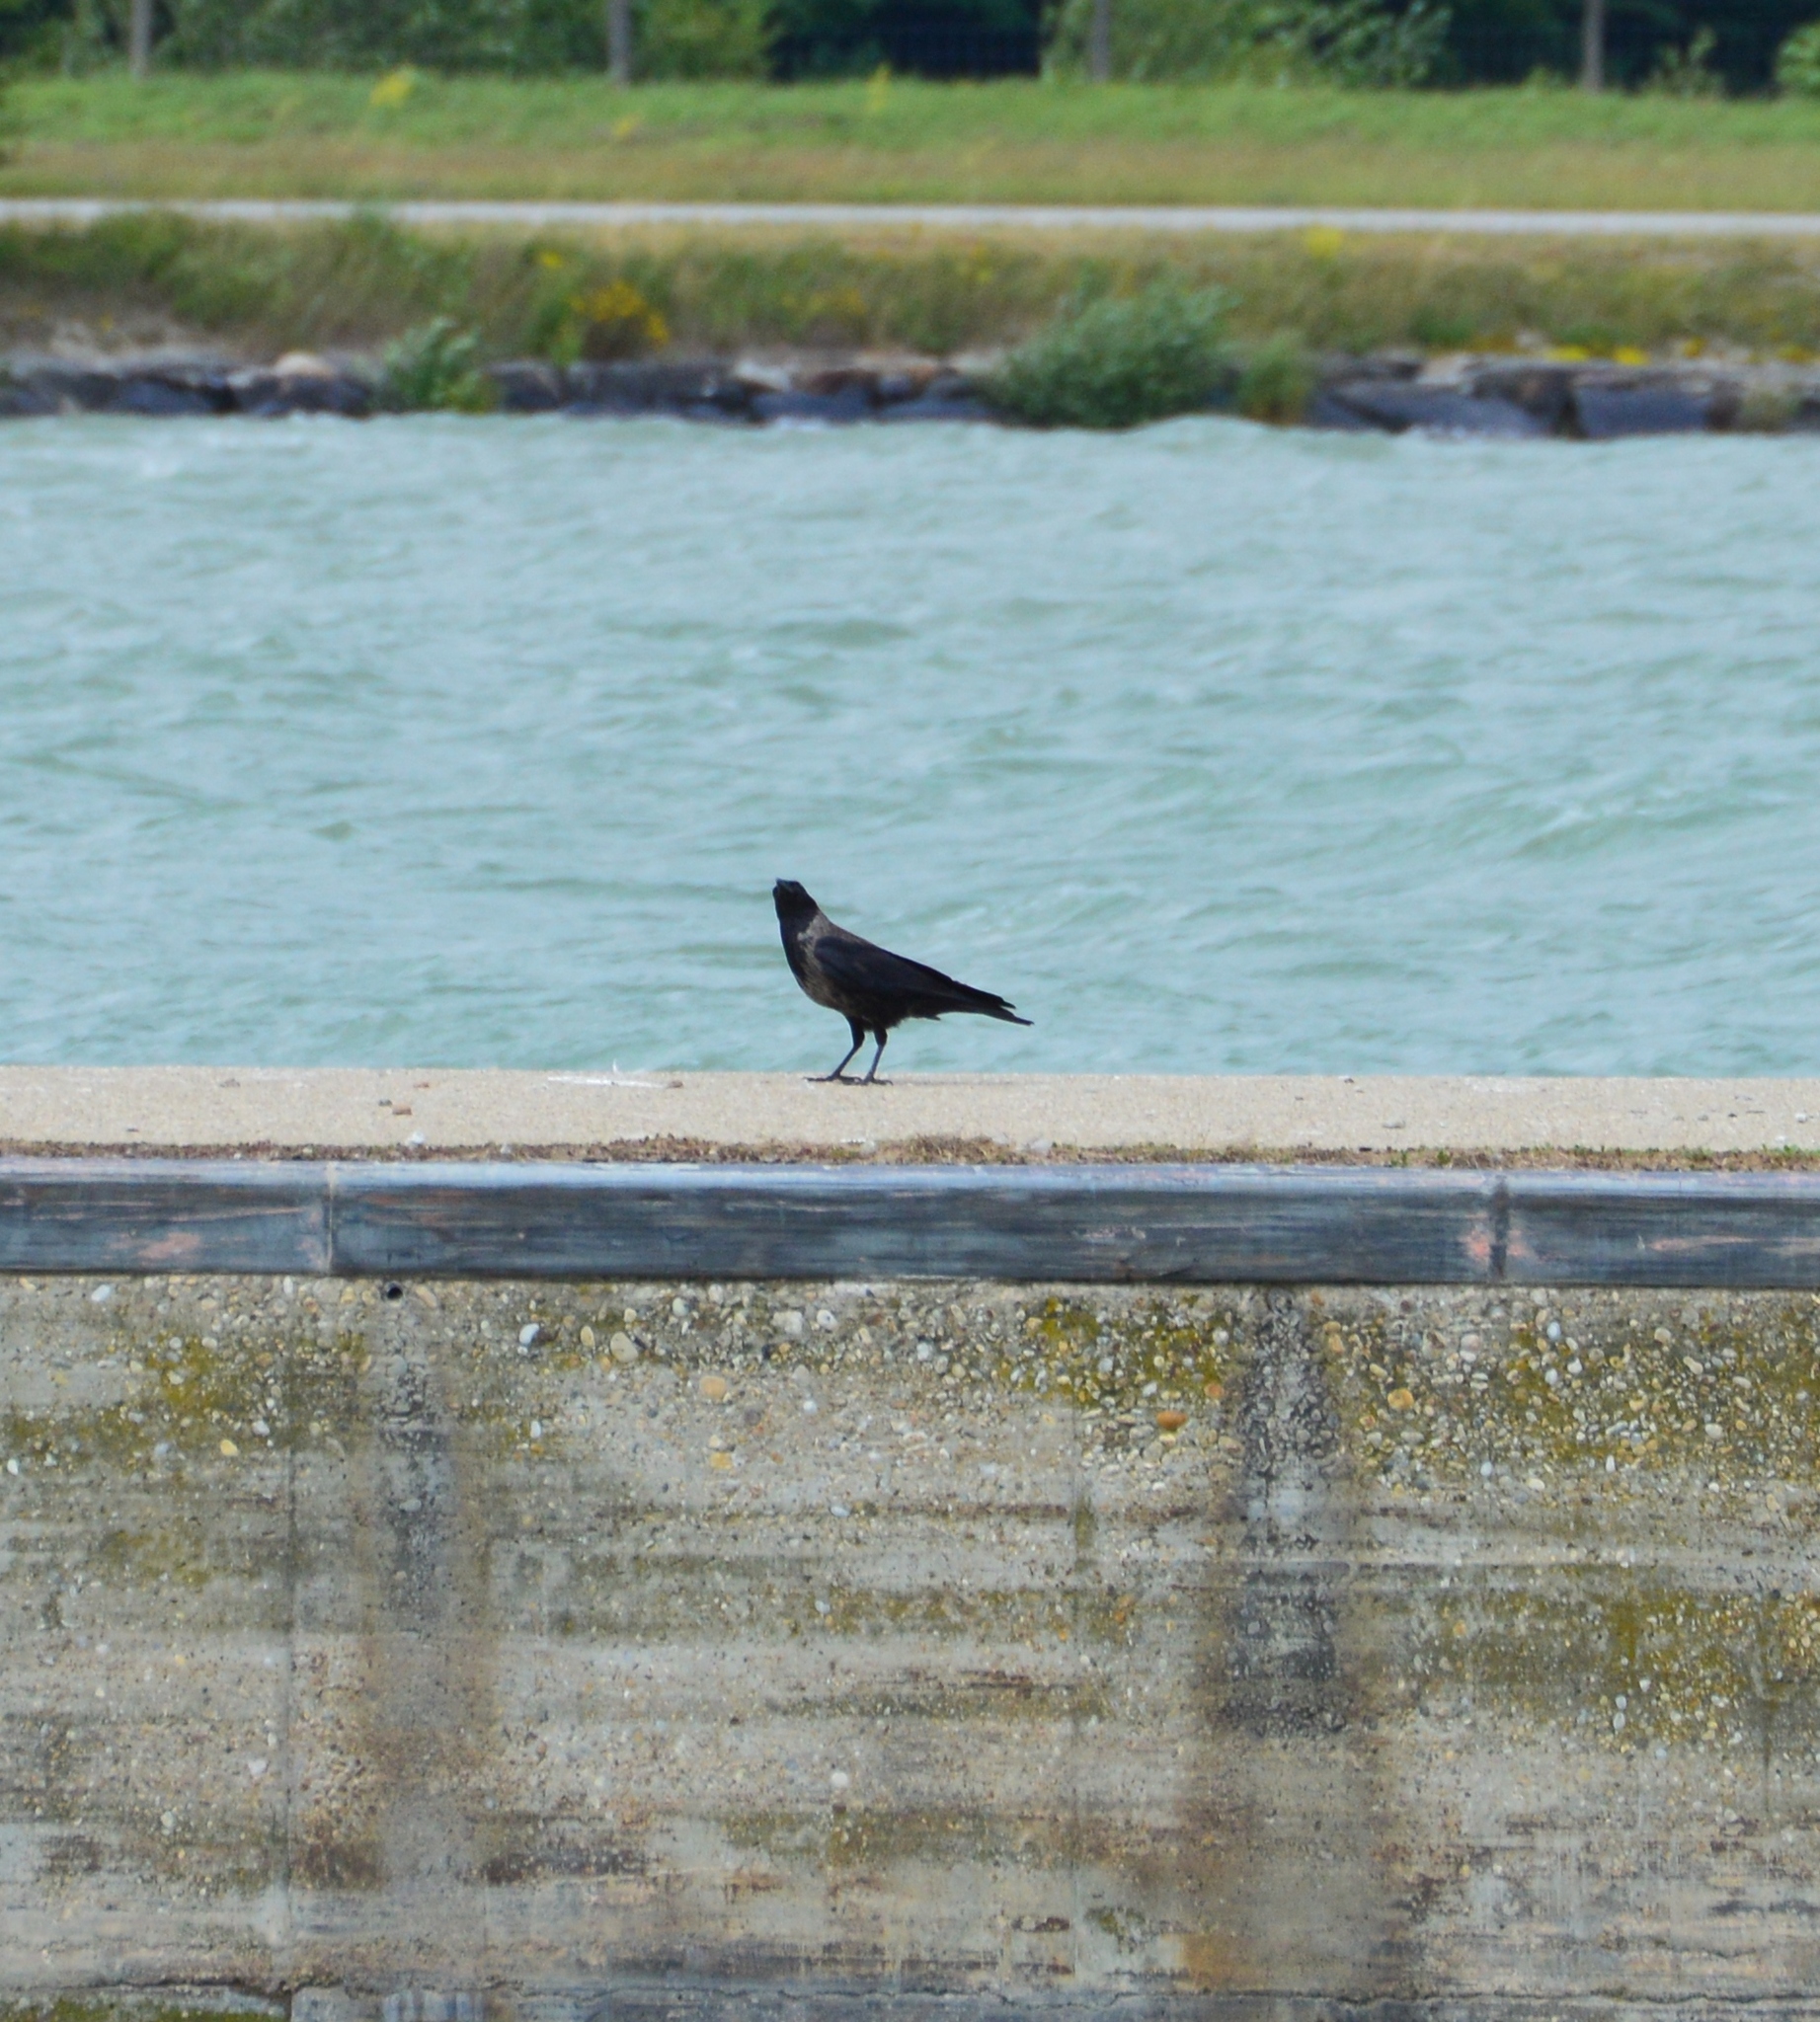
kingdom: Animalia
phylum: Chordata
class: Aves
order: Passeriformes
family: Corvidae
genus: Corvus
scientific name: Corvus
